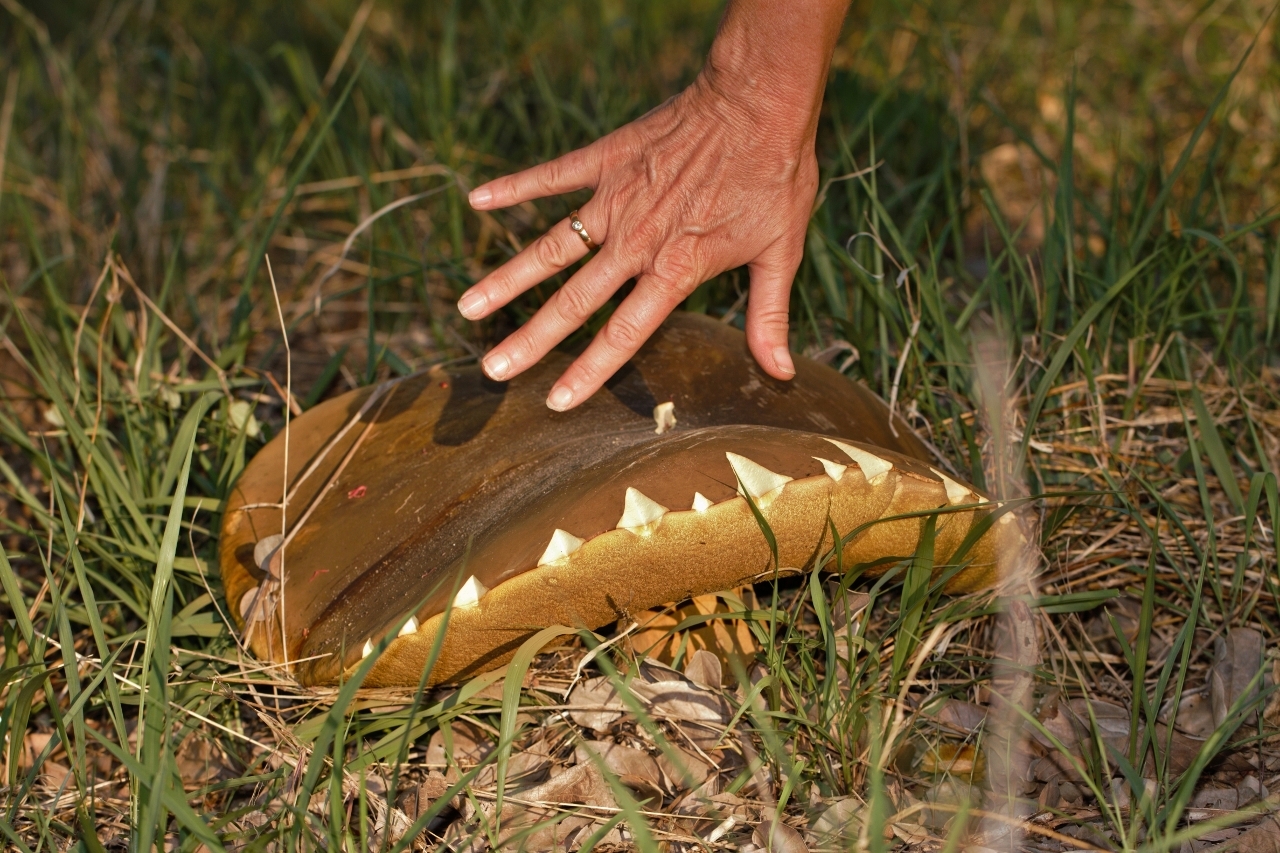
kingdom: Fungi
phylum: Basidiomycota
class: Agaricomycetes
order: Boletales
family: Boletinellaceae
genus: Phlebopus
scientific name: Phlebopus colossus
